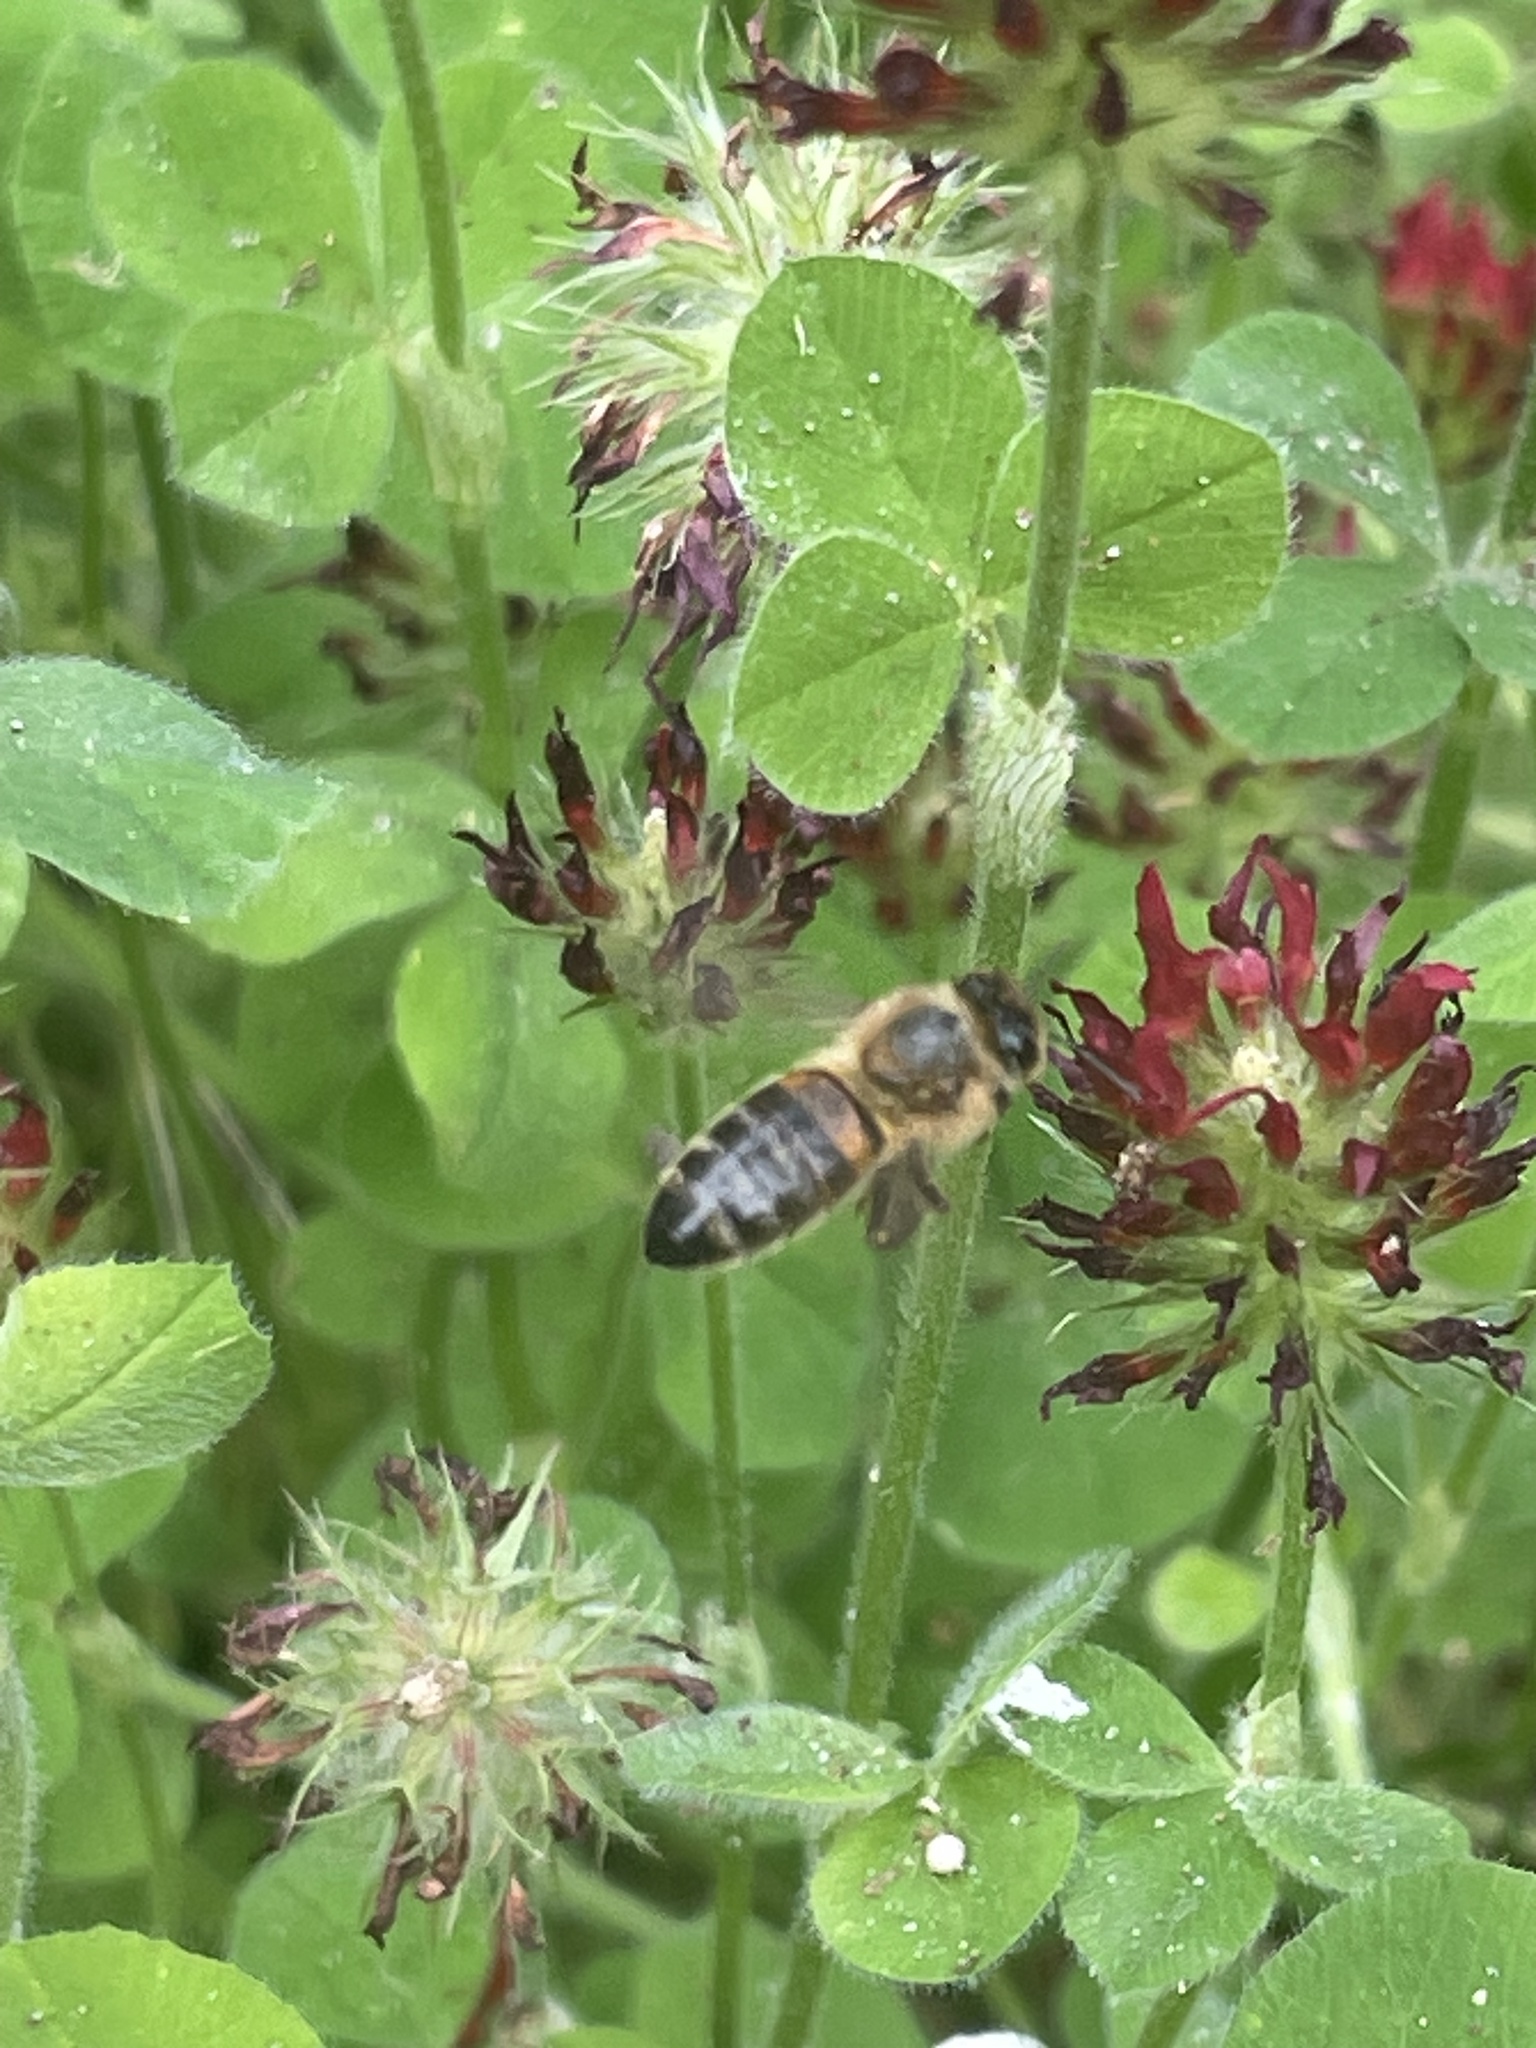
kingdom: Animalia
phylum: Arthropoda
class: Insecta
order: Hymenoptera
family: Apidae
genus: Apis
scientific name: Apis mellifera
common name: Honey bee
